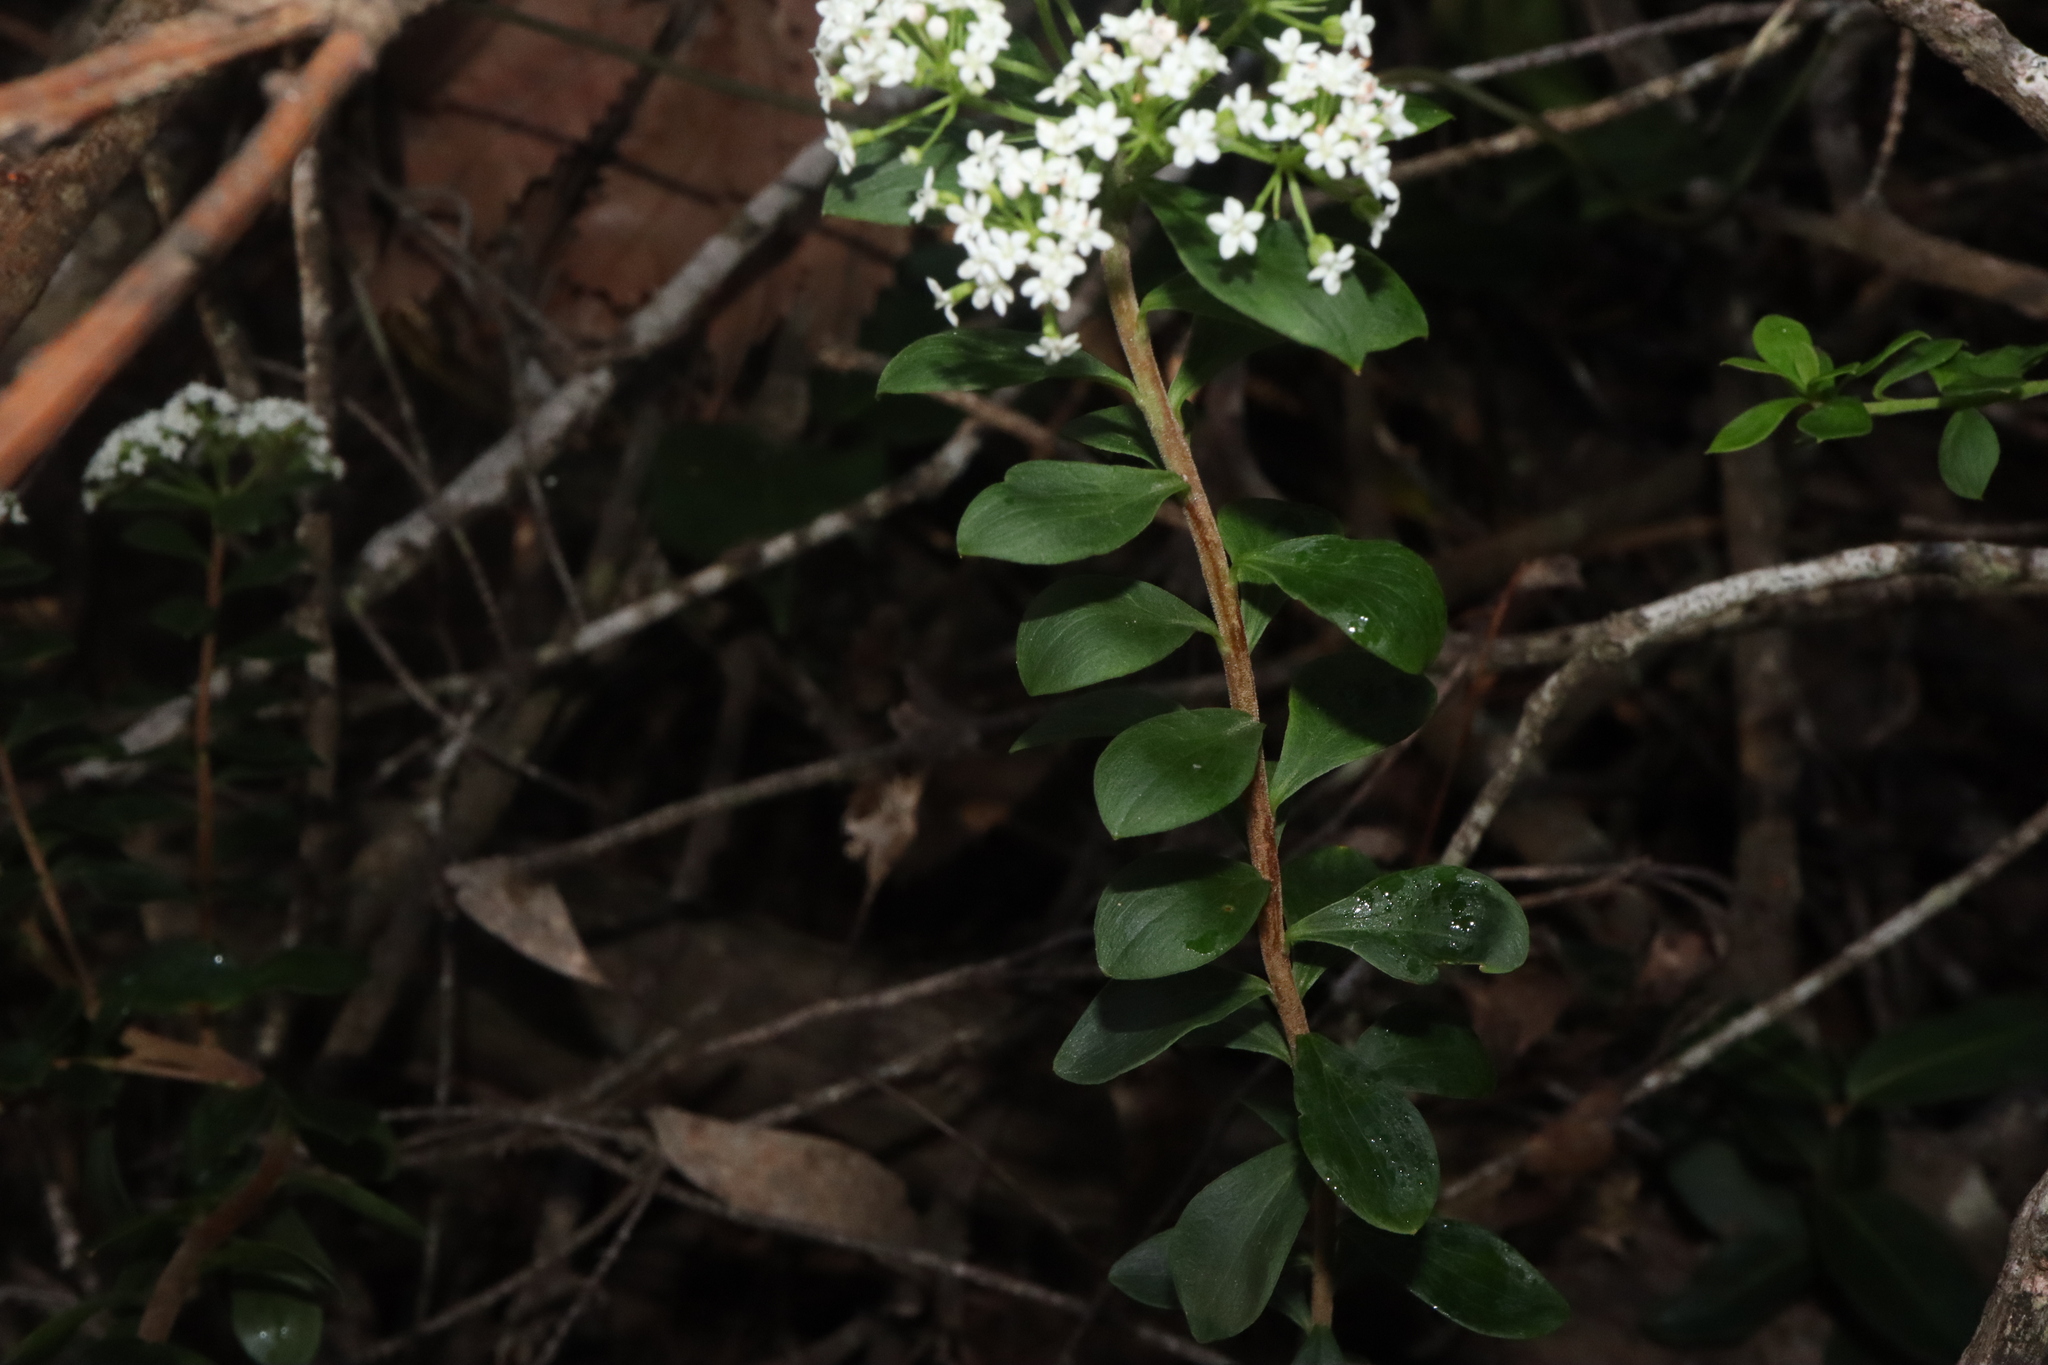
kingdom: Plantae
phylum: Tracheophyta
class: Magnoliopsida
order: Apiales
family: Apiaceae
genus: Platysace
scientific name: Platysace lanceolata
